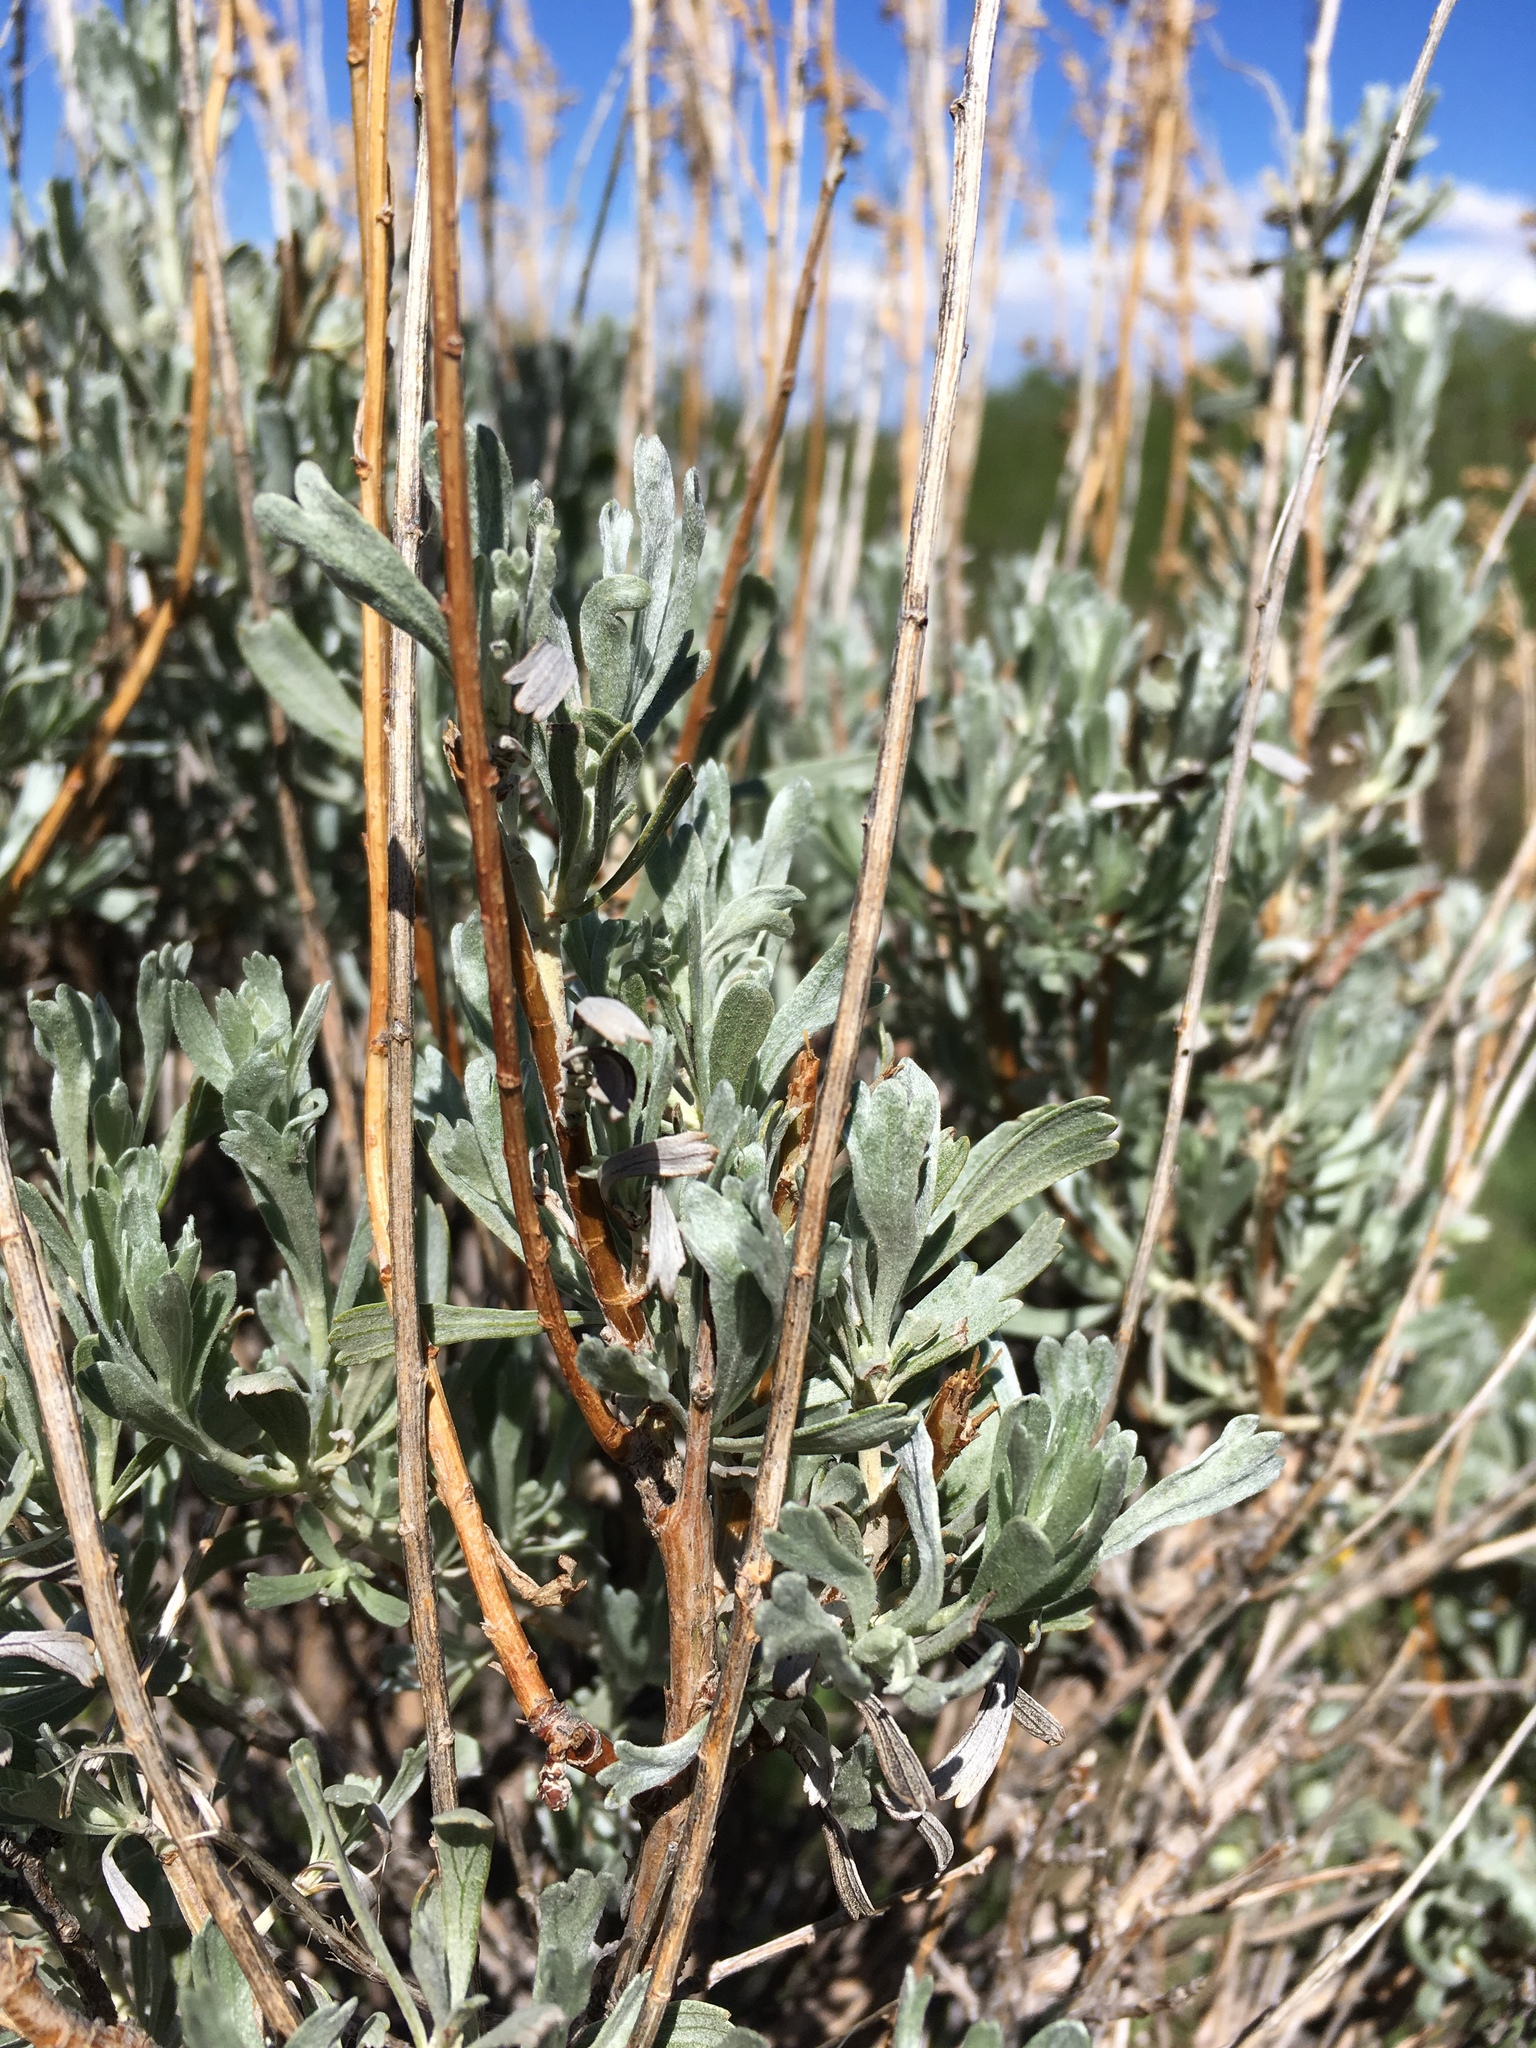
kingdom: Plantae
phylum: Tracheophyta
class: Magnoliopsida
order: Asterales
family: Asteraceae
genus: Artemisia
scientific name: Artemisia tridentata
